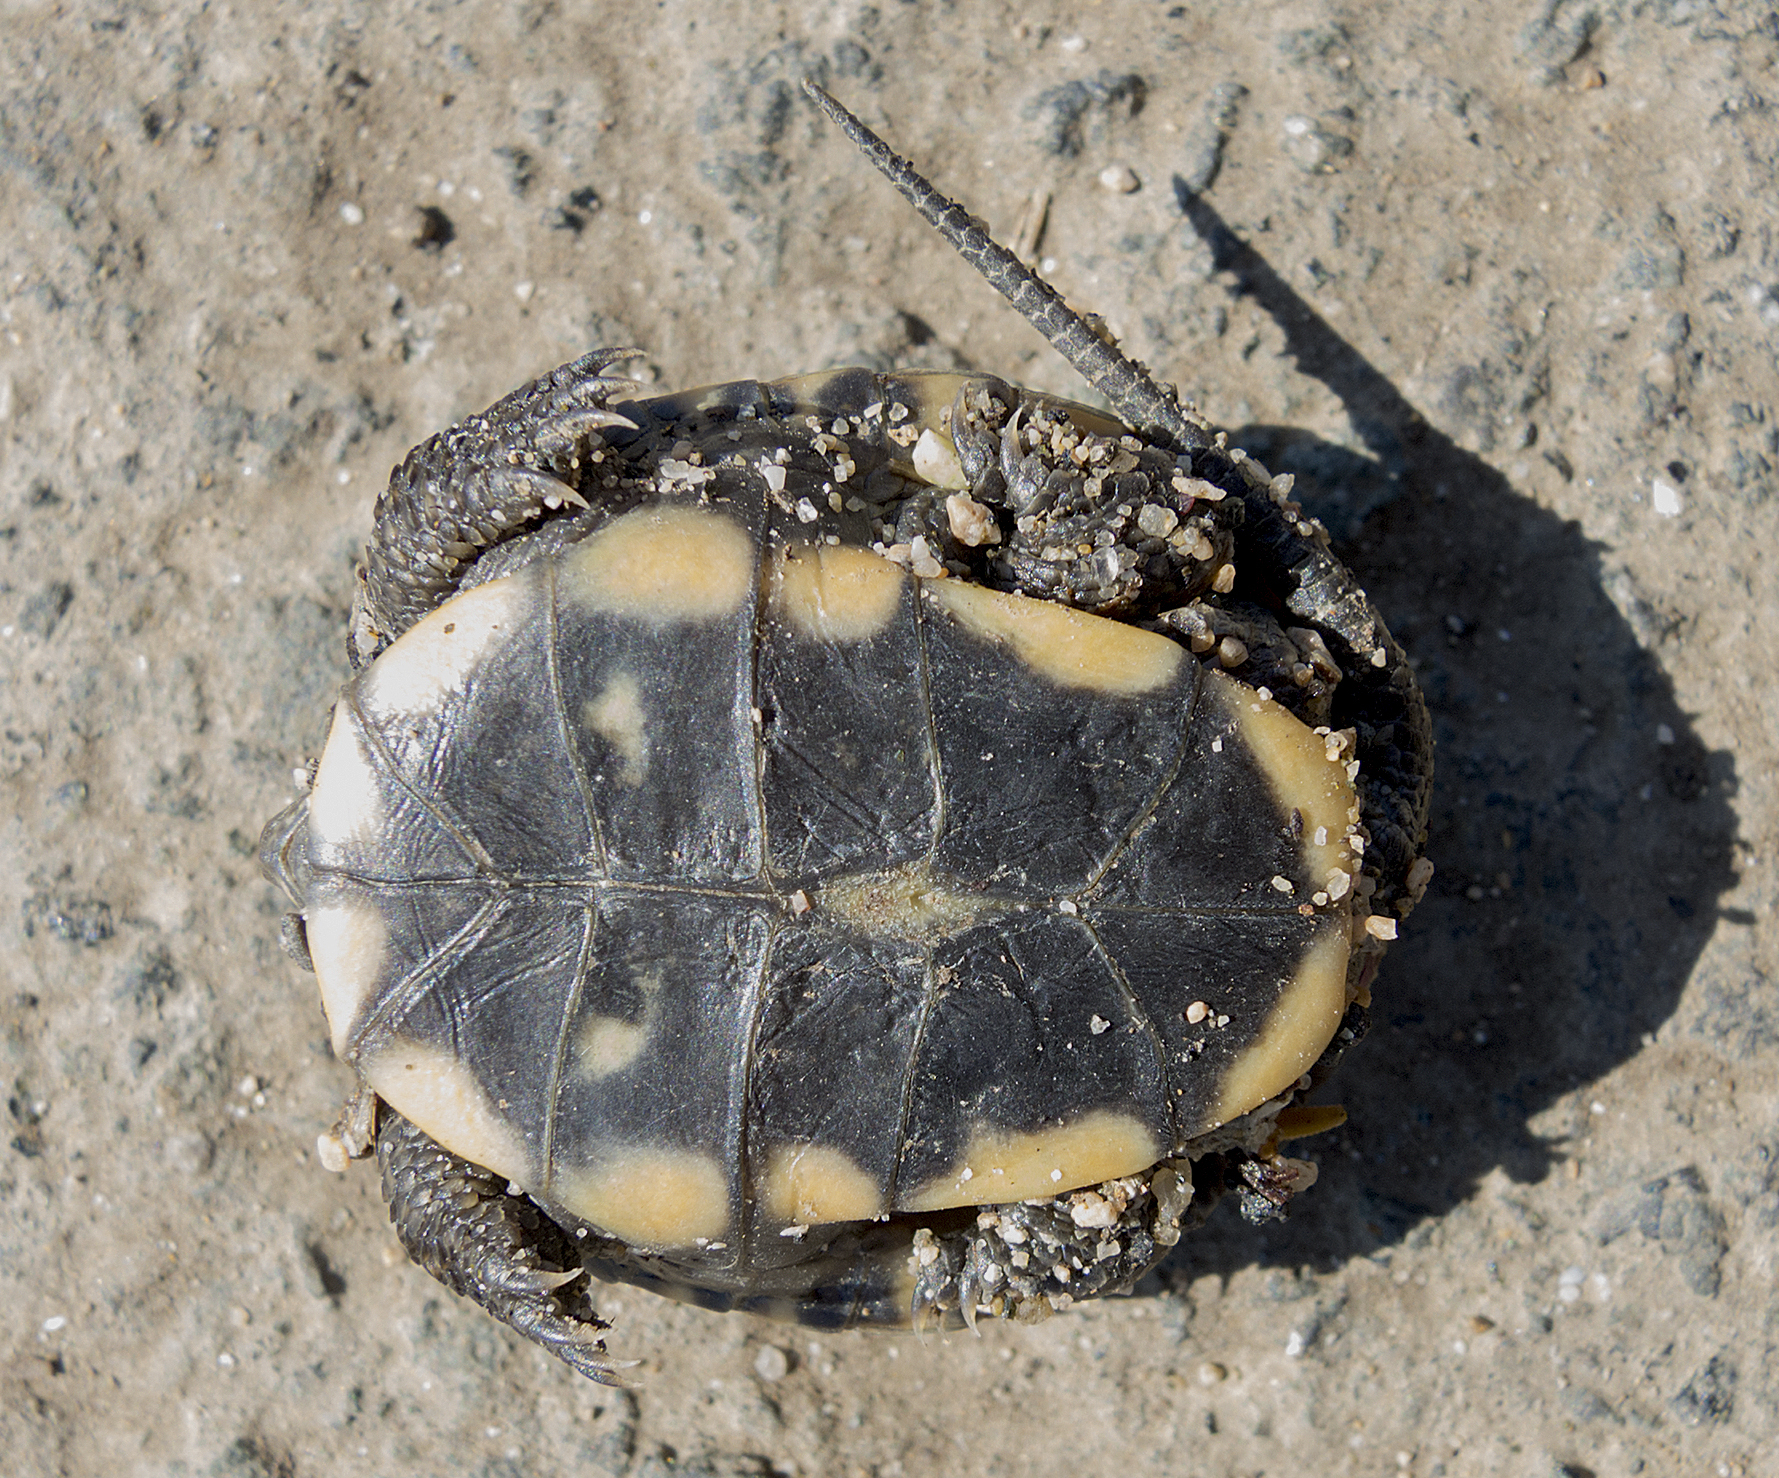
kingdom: Animalia
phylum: Chordata
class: Testudines
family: Emydidae
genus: Emys
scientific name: Emys orbicularis
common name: European pond turtle
